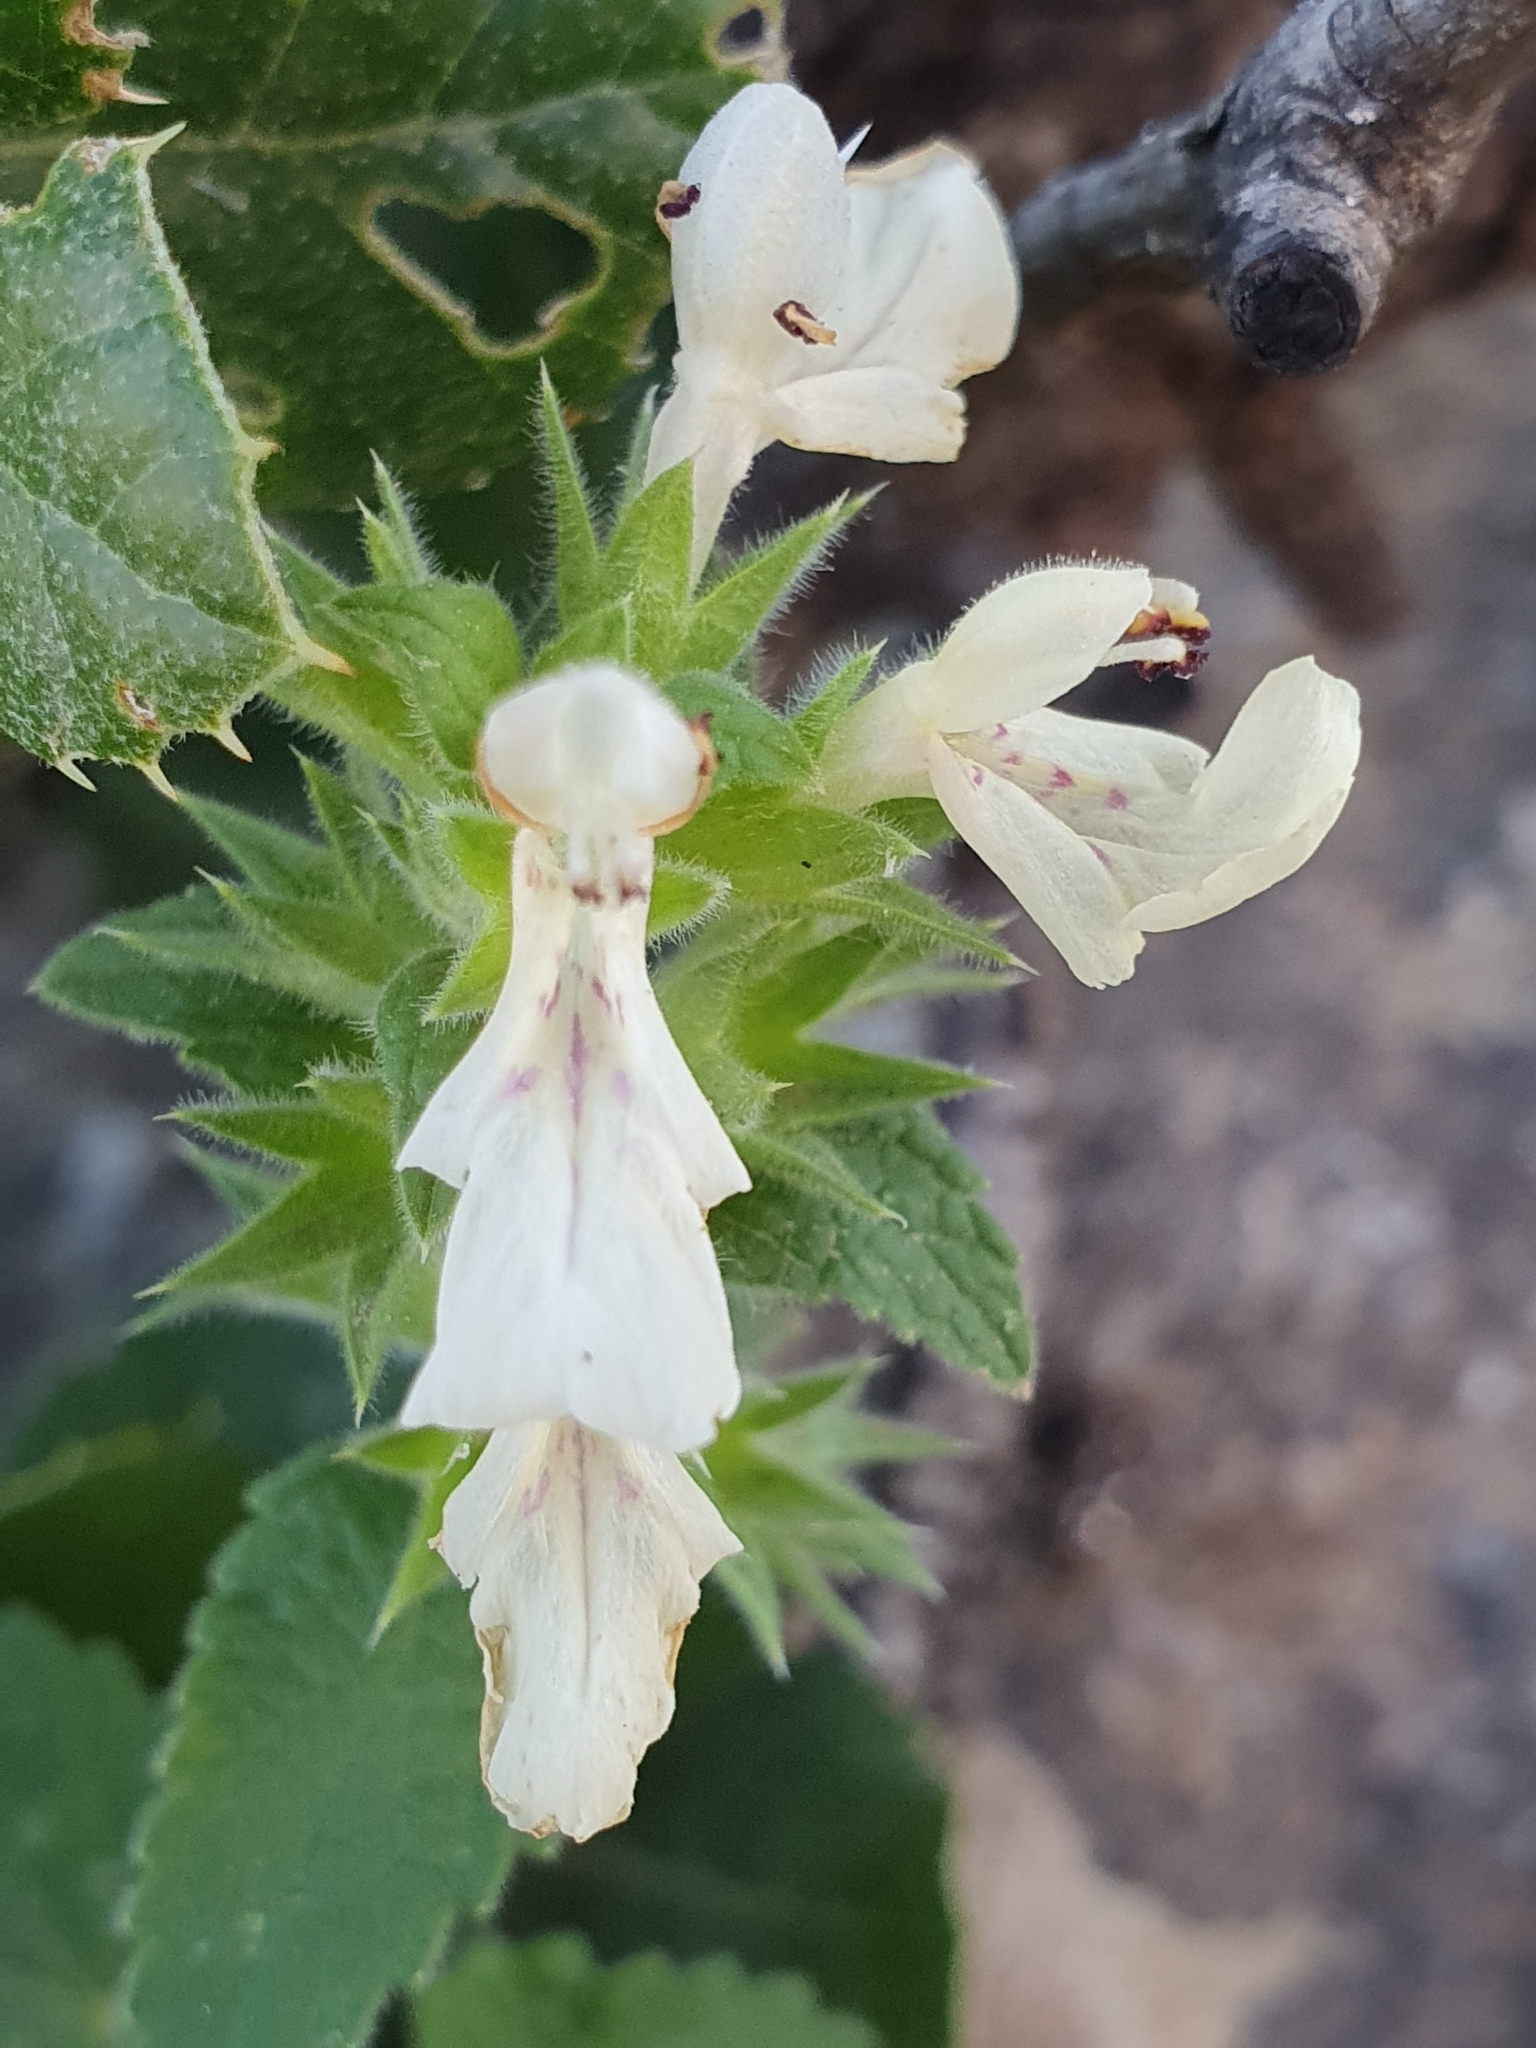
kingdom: Plantae
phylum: Tracheophyta
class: Magnoliopsida
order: Lamiales
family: Lamiaceae
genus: Stachys
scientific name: Stachys circinata
